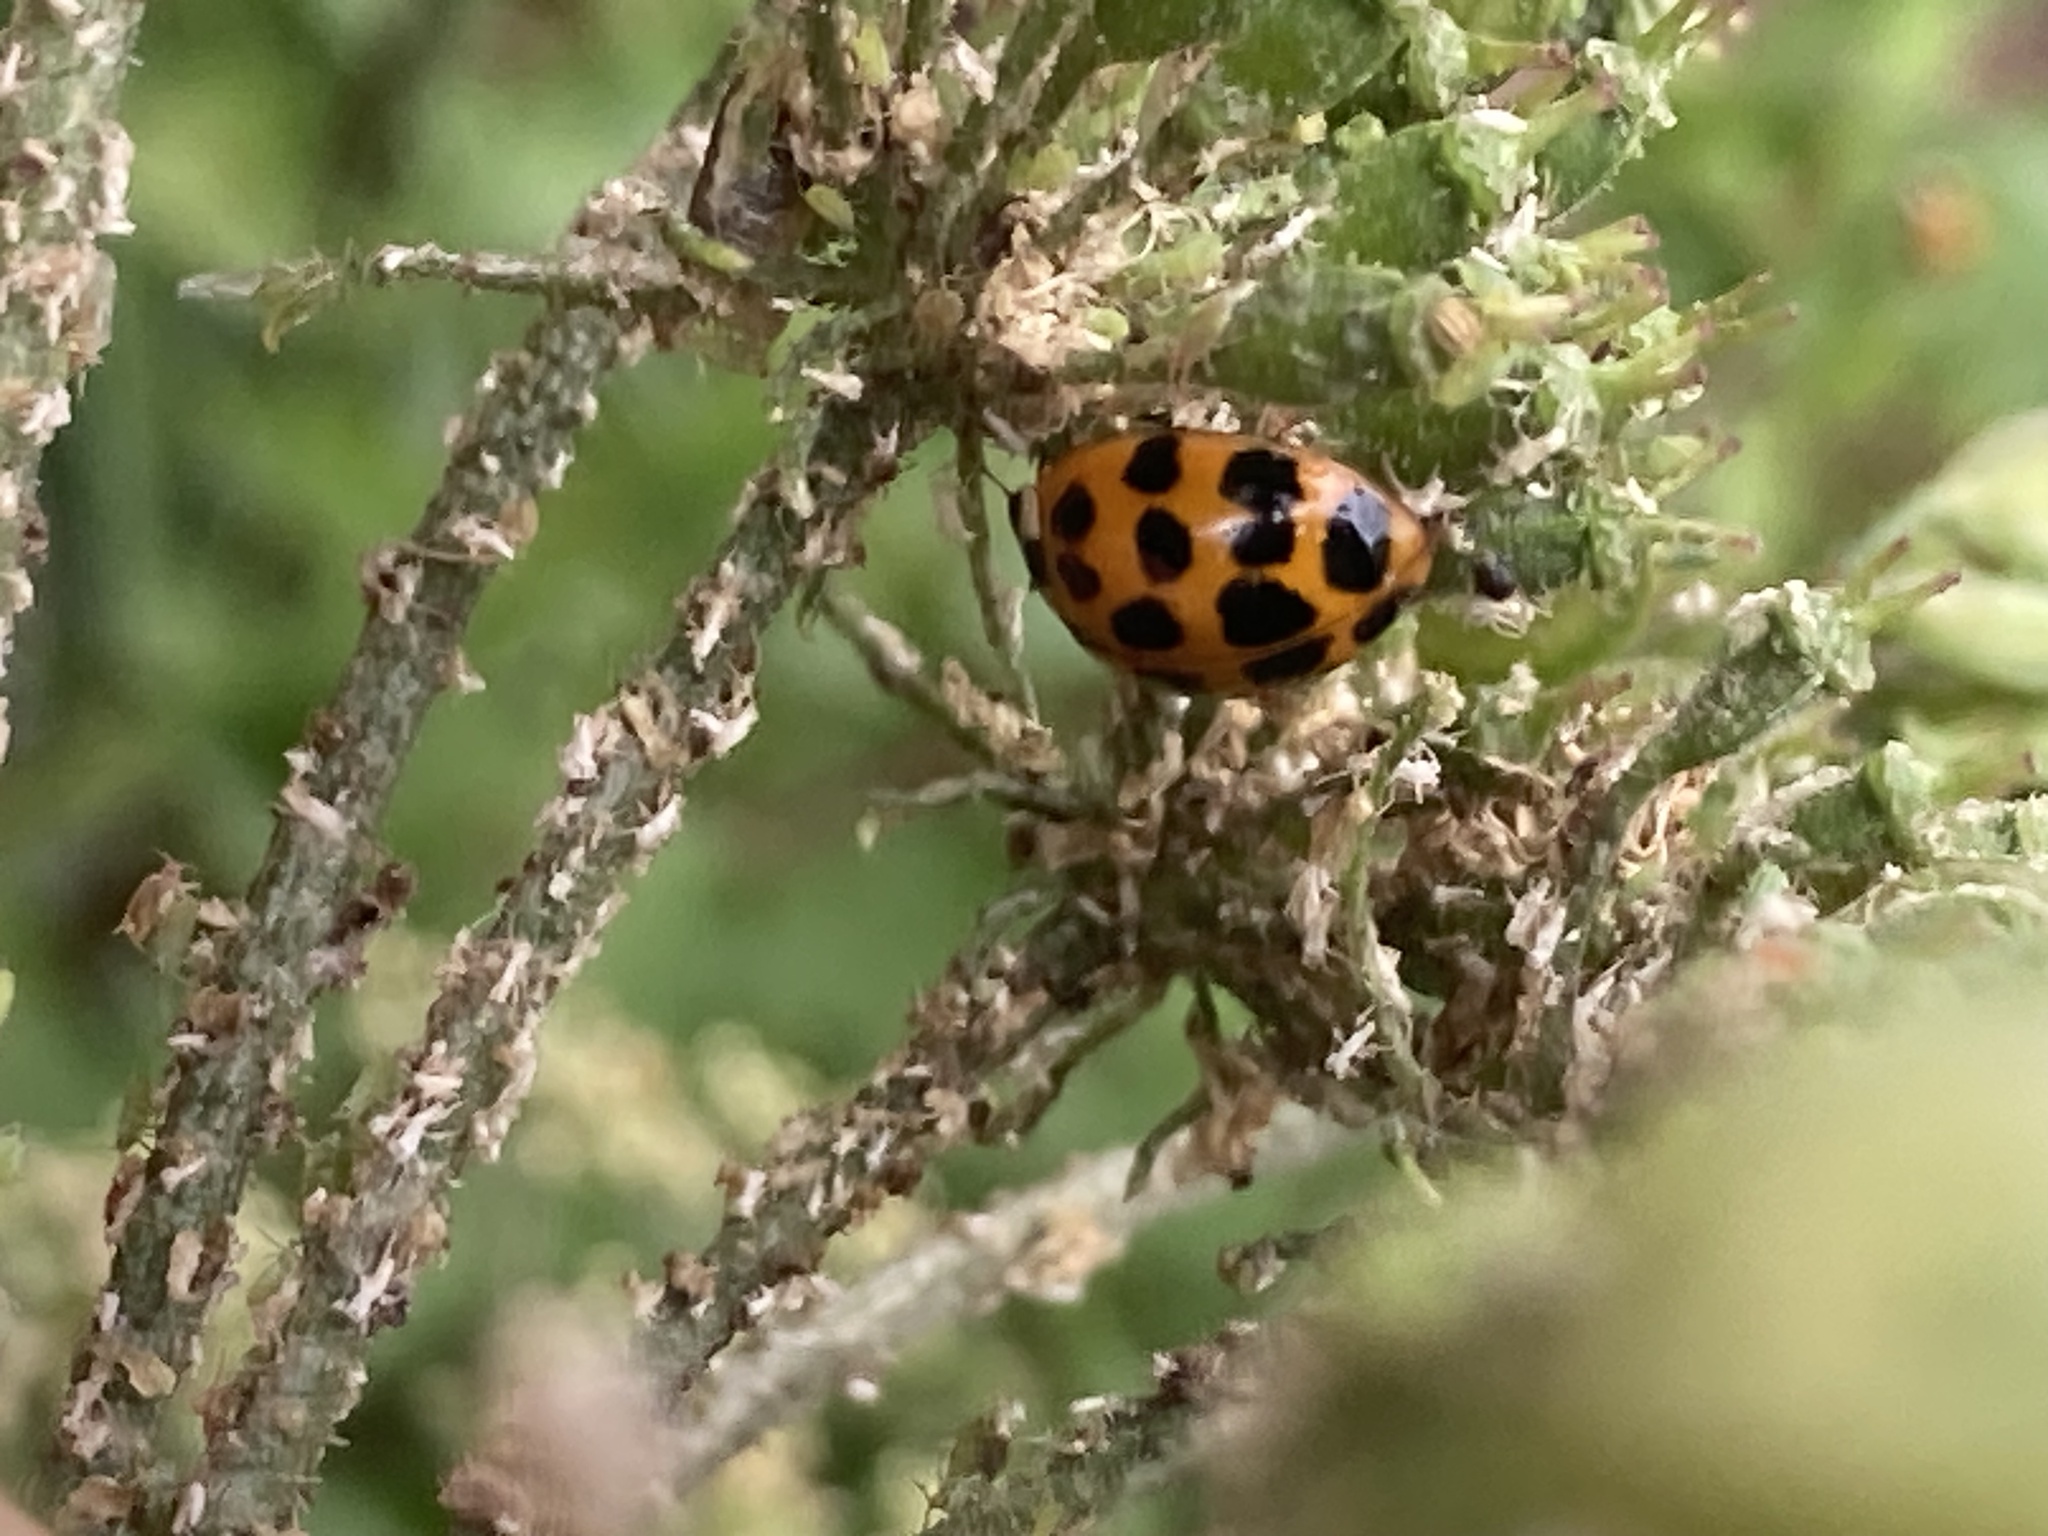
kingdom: Animalia
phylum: Arthropoda
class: Insecta
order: Coleoptera
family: Coccinellidae
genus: Harmonia
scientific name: Harmonia axyridis
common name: Harlequin ladybird
